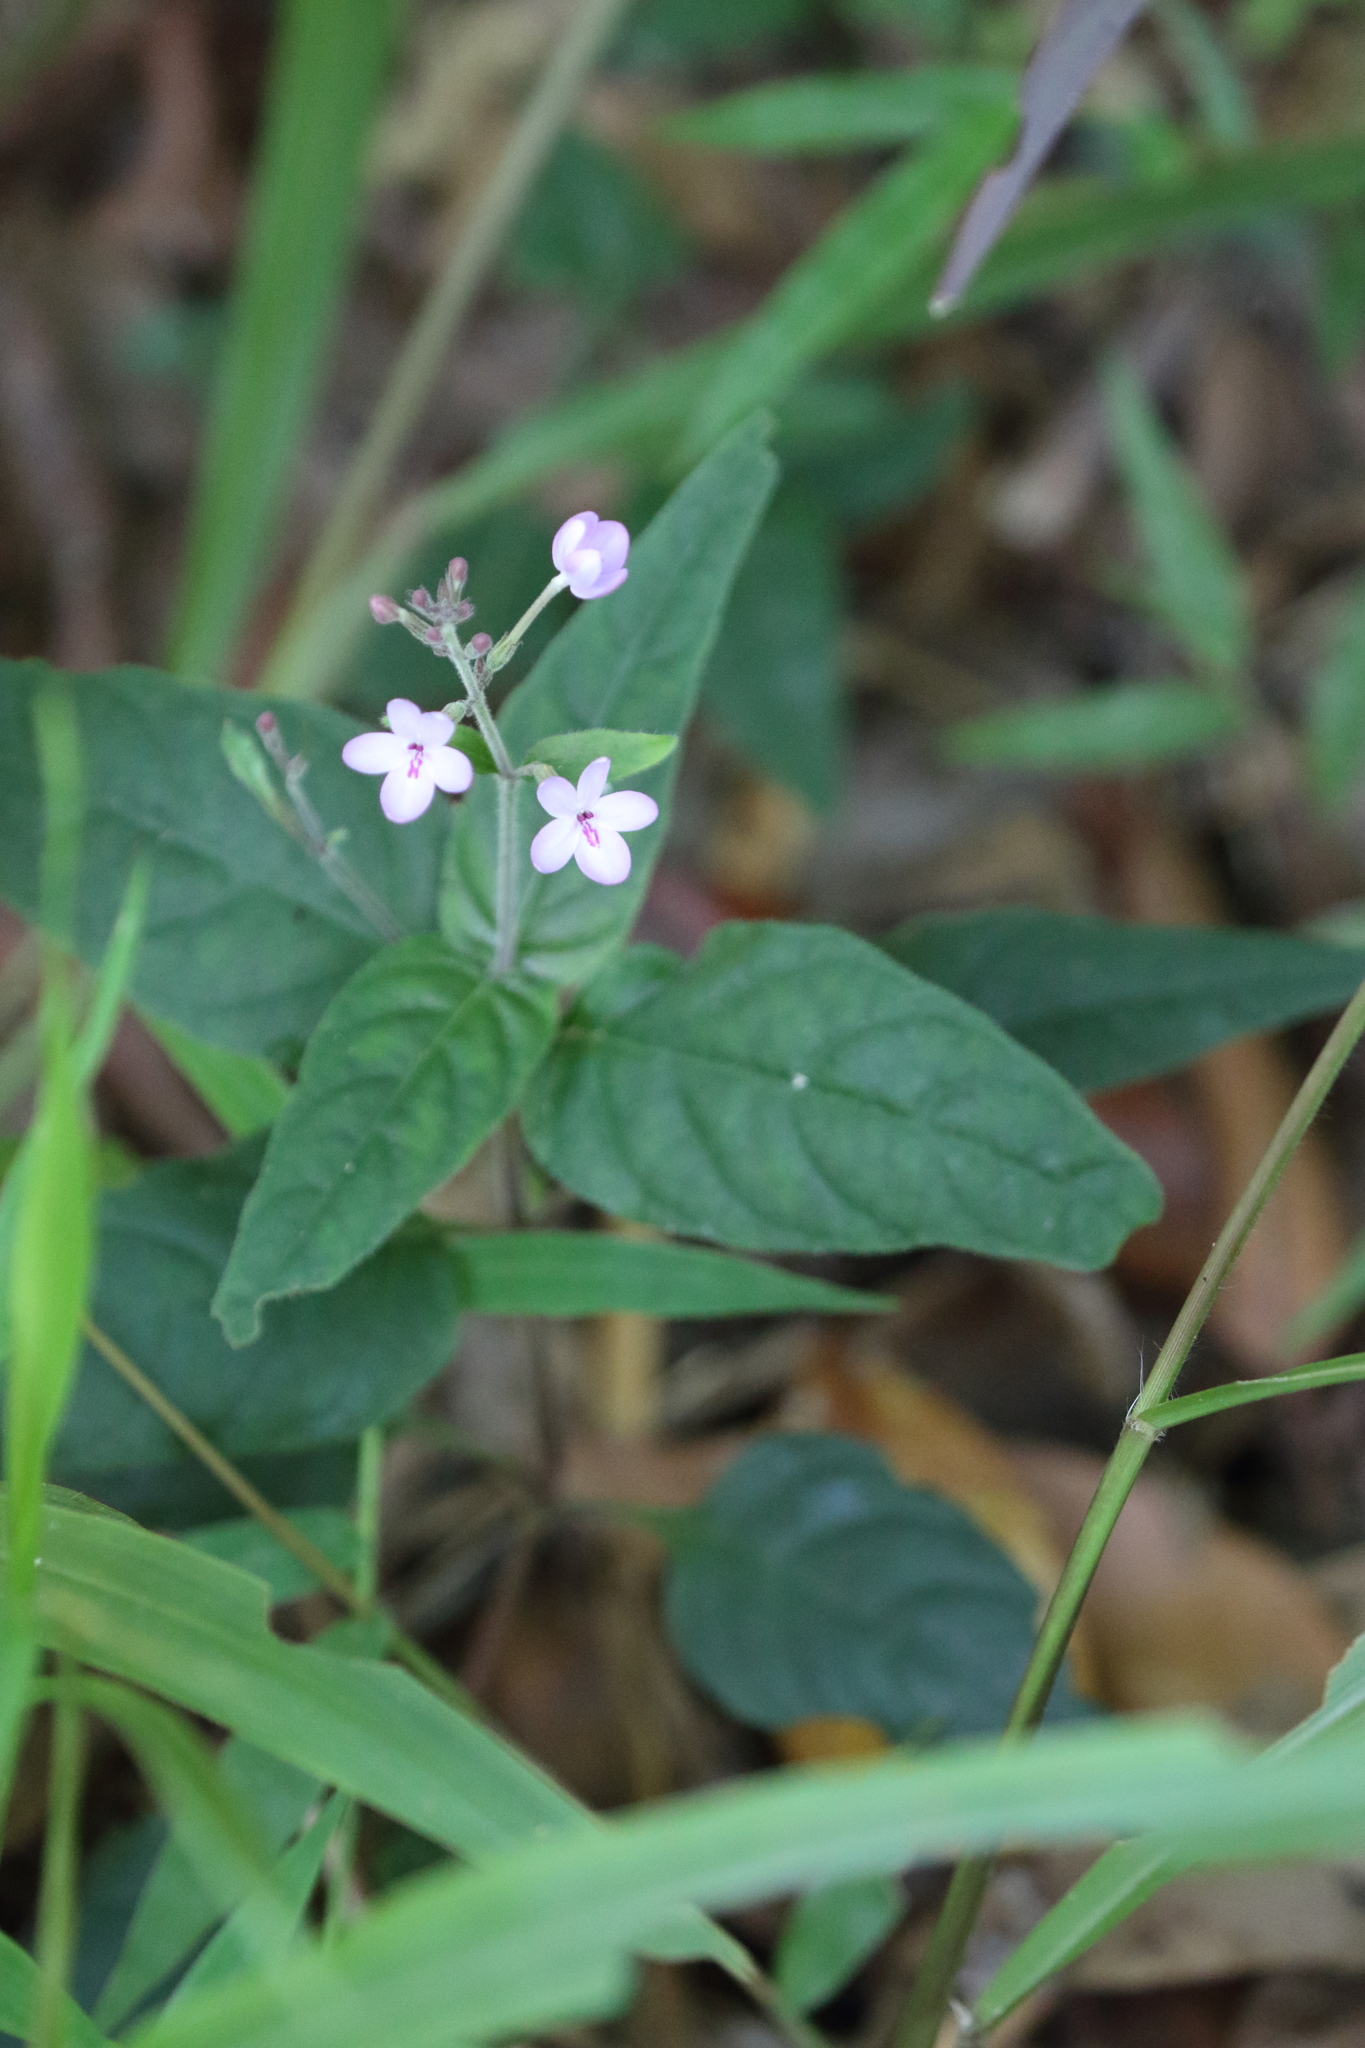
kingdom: Plantae
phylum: Tracheophyta
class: Magnoliopsida
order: Lamiales
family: Acanthaceae
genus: Pseuderanthemum
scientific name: Pseuderanthemum variabile
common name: Night and afternoon
